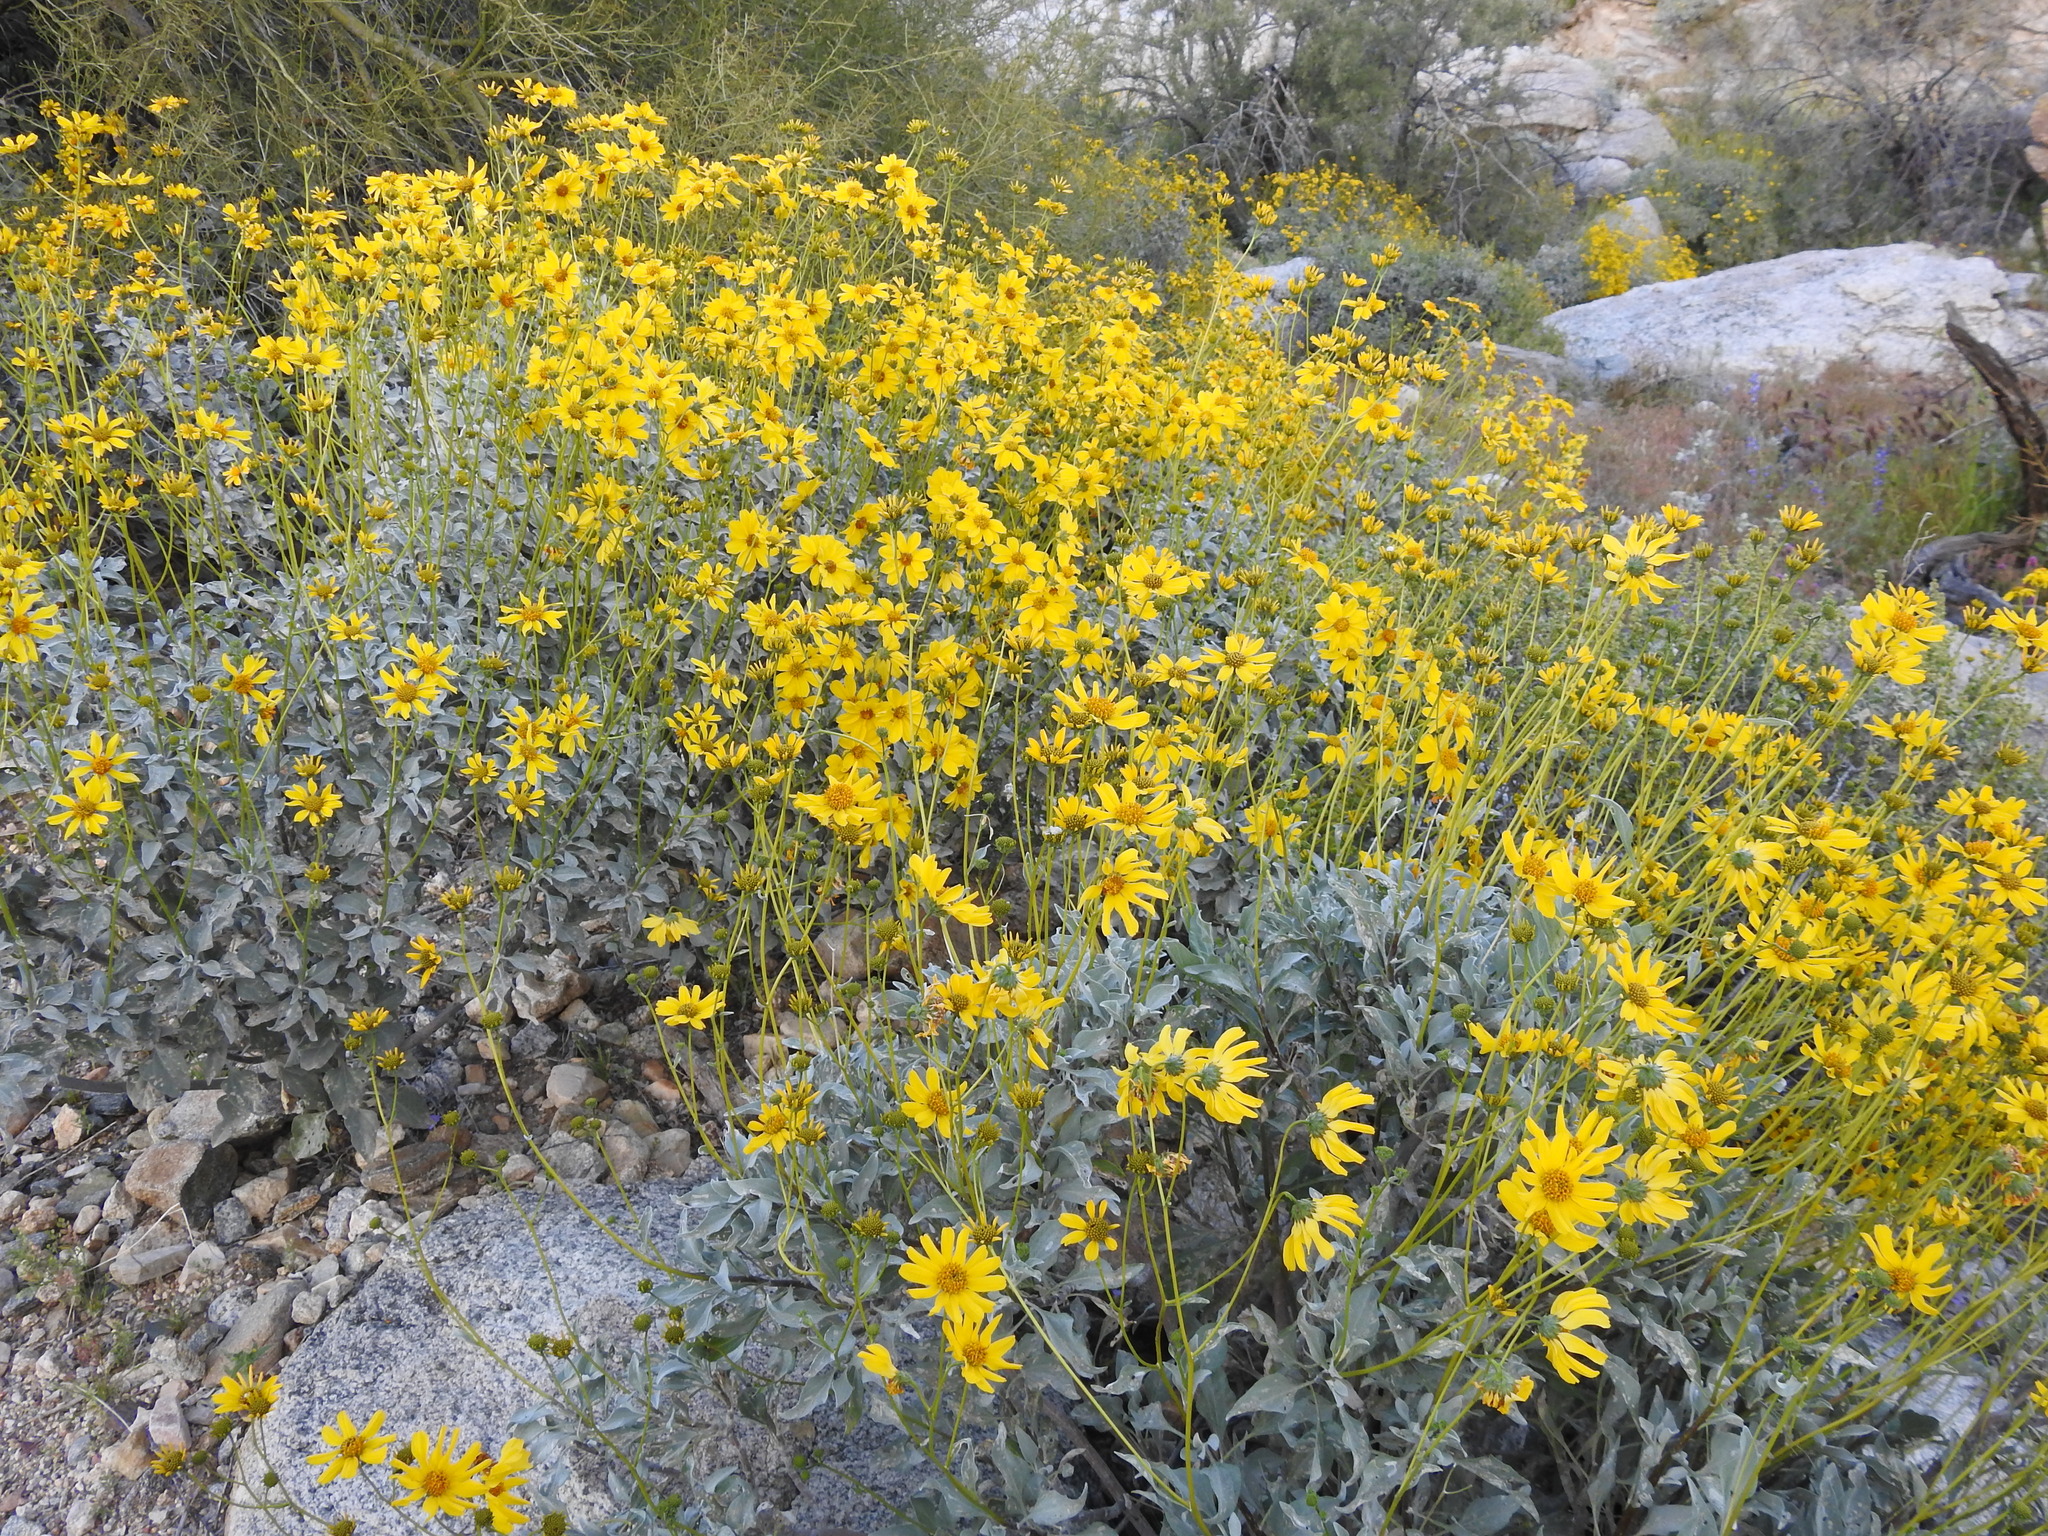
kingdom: Plantae
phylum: Tracheophyta
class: Magnoliopsida
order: Asterales
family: Asteraceae
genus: Encelia
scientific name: Encelia farinosa
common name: Brittlebush
